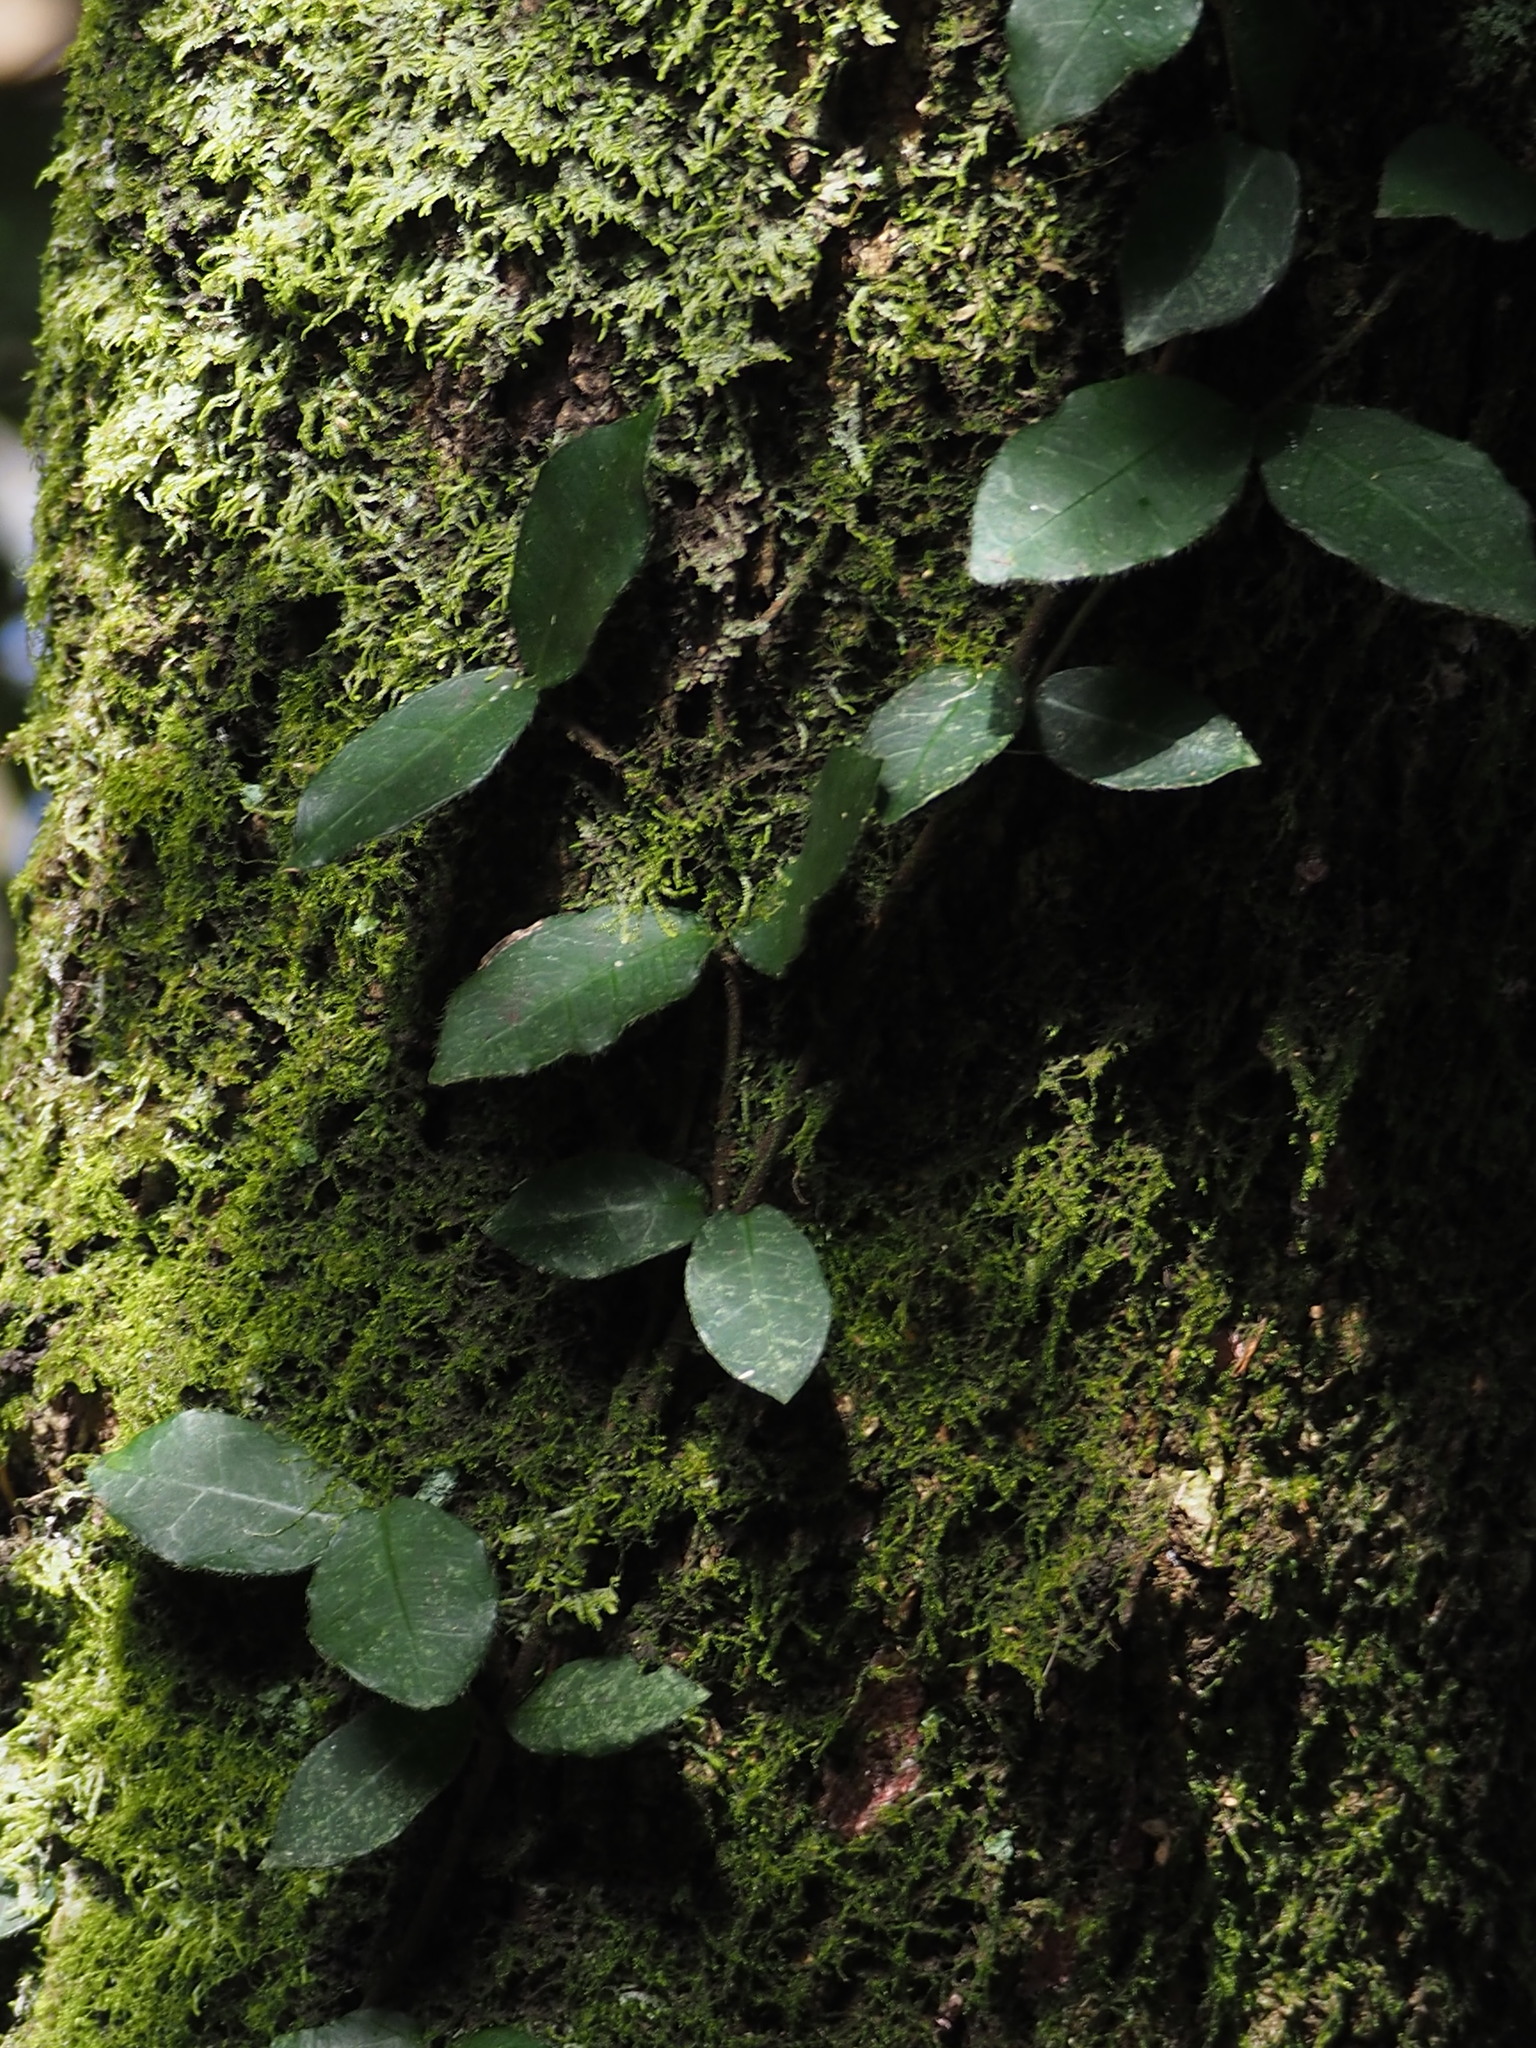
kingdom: Plantae
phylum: Tracheophyta
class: Magnoliopsida
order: Cornales
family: Hydrangeaceae
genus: Hydrangea
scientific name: Hydrangea viburnoides
